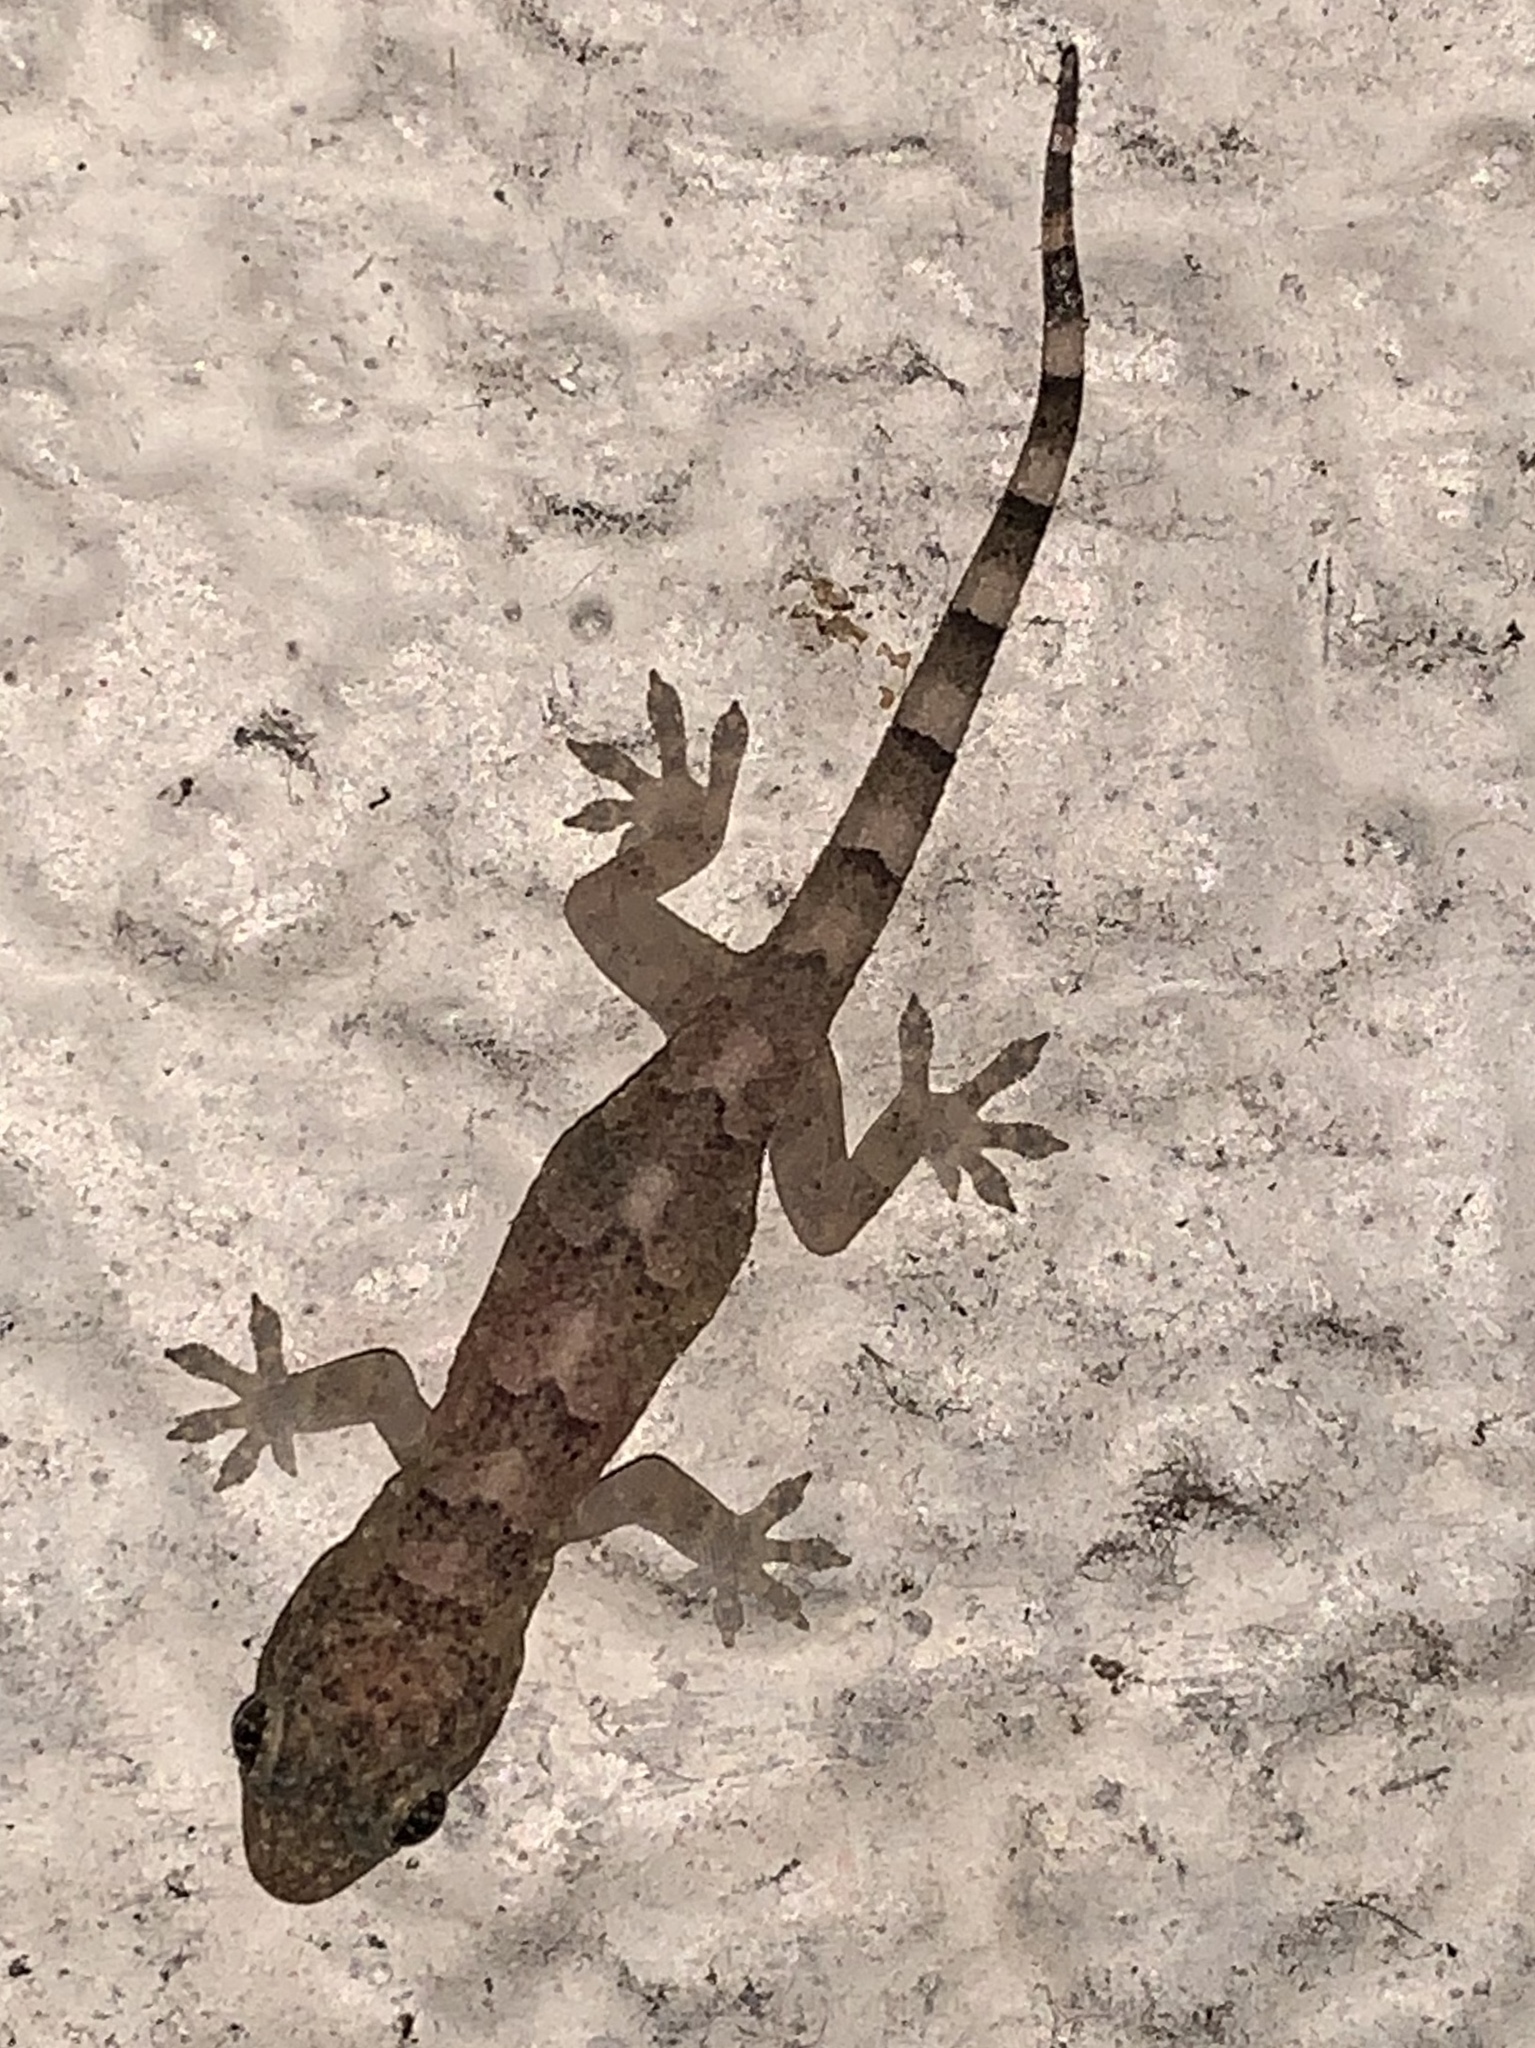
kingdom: Animalia
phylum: Chordata
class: Squamata
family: Gekkonidae
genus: Hemidactylus
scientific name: Hemidactylus mabouia
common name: House gecko
